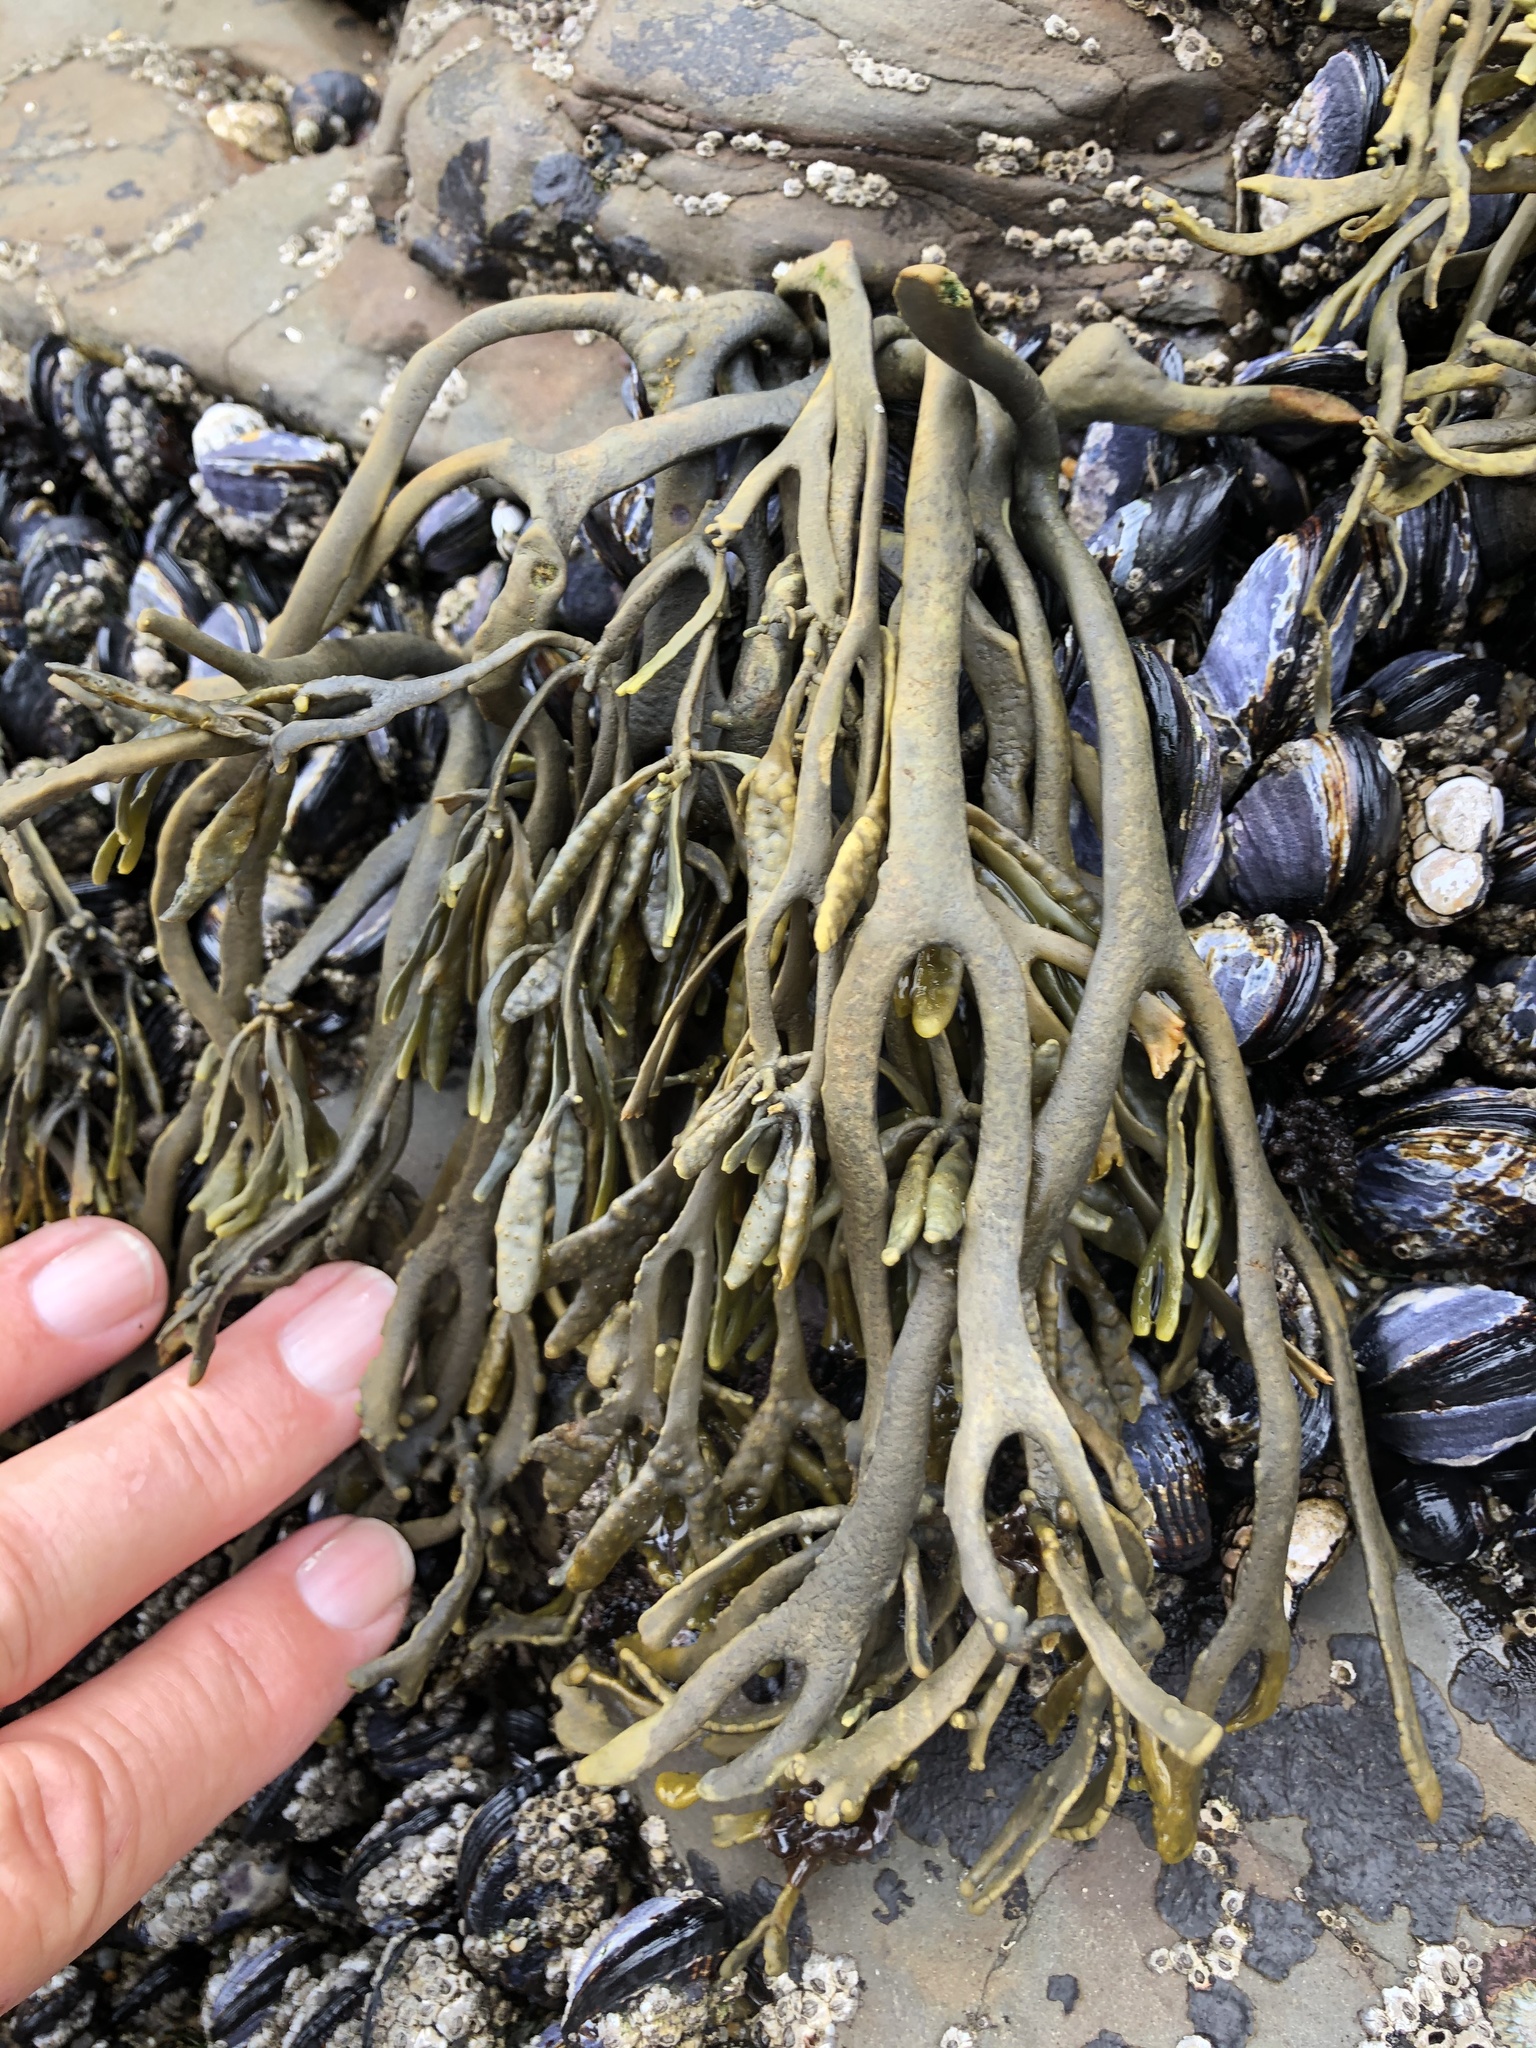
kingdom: Chromista
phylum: Ochrophyta
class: Phaeophyceae
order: Fucales
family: Fucaceae
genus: Silvetia
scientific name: Silvetia
